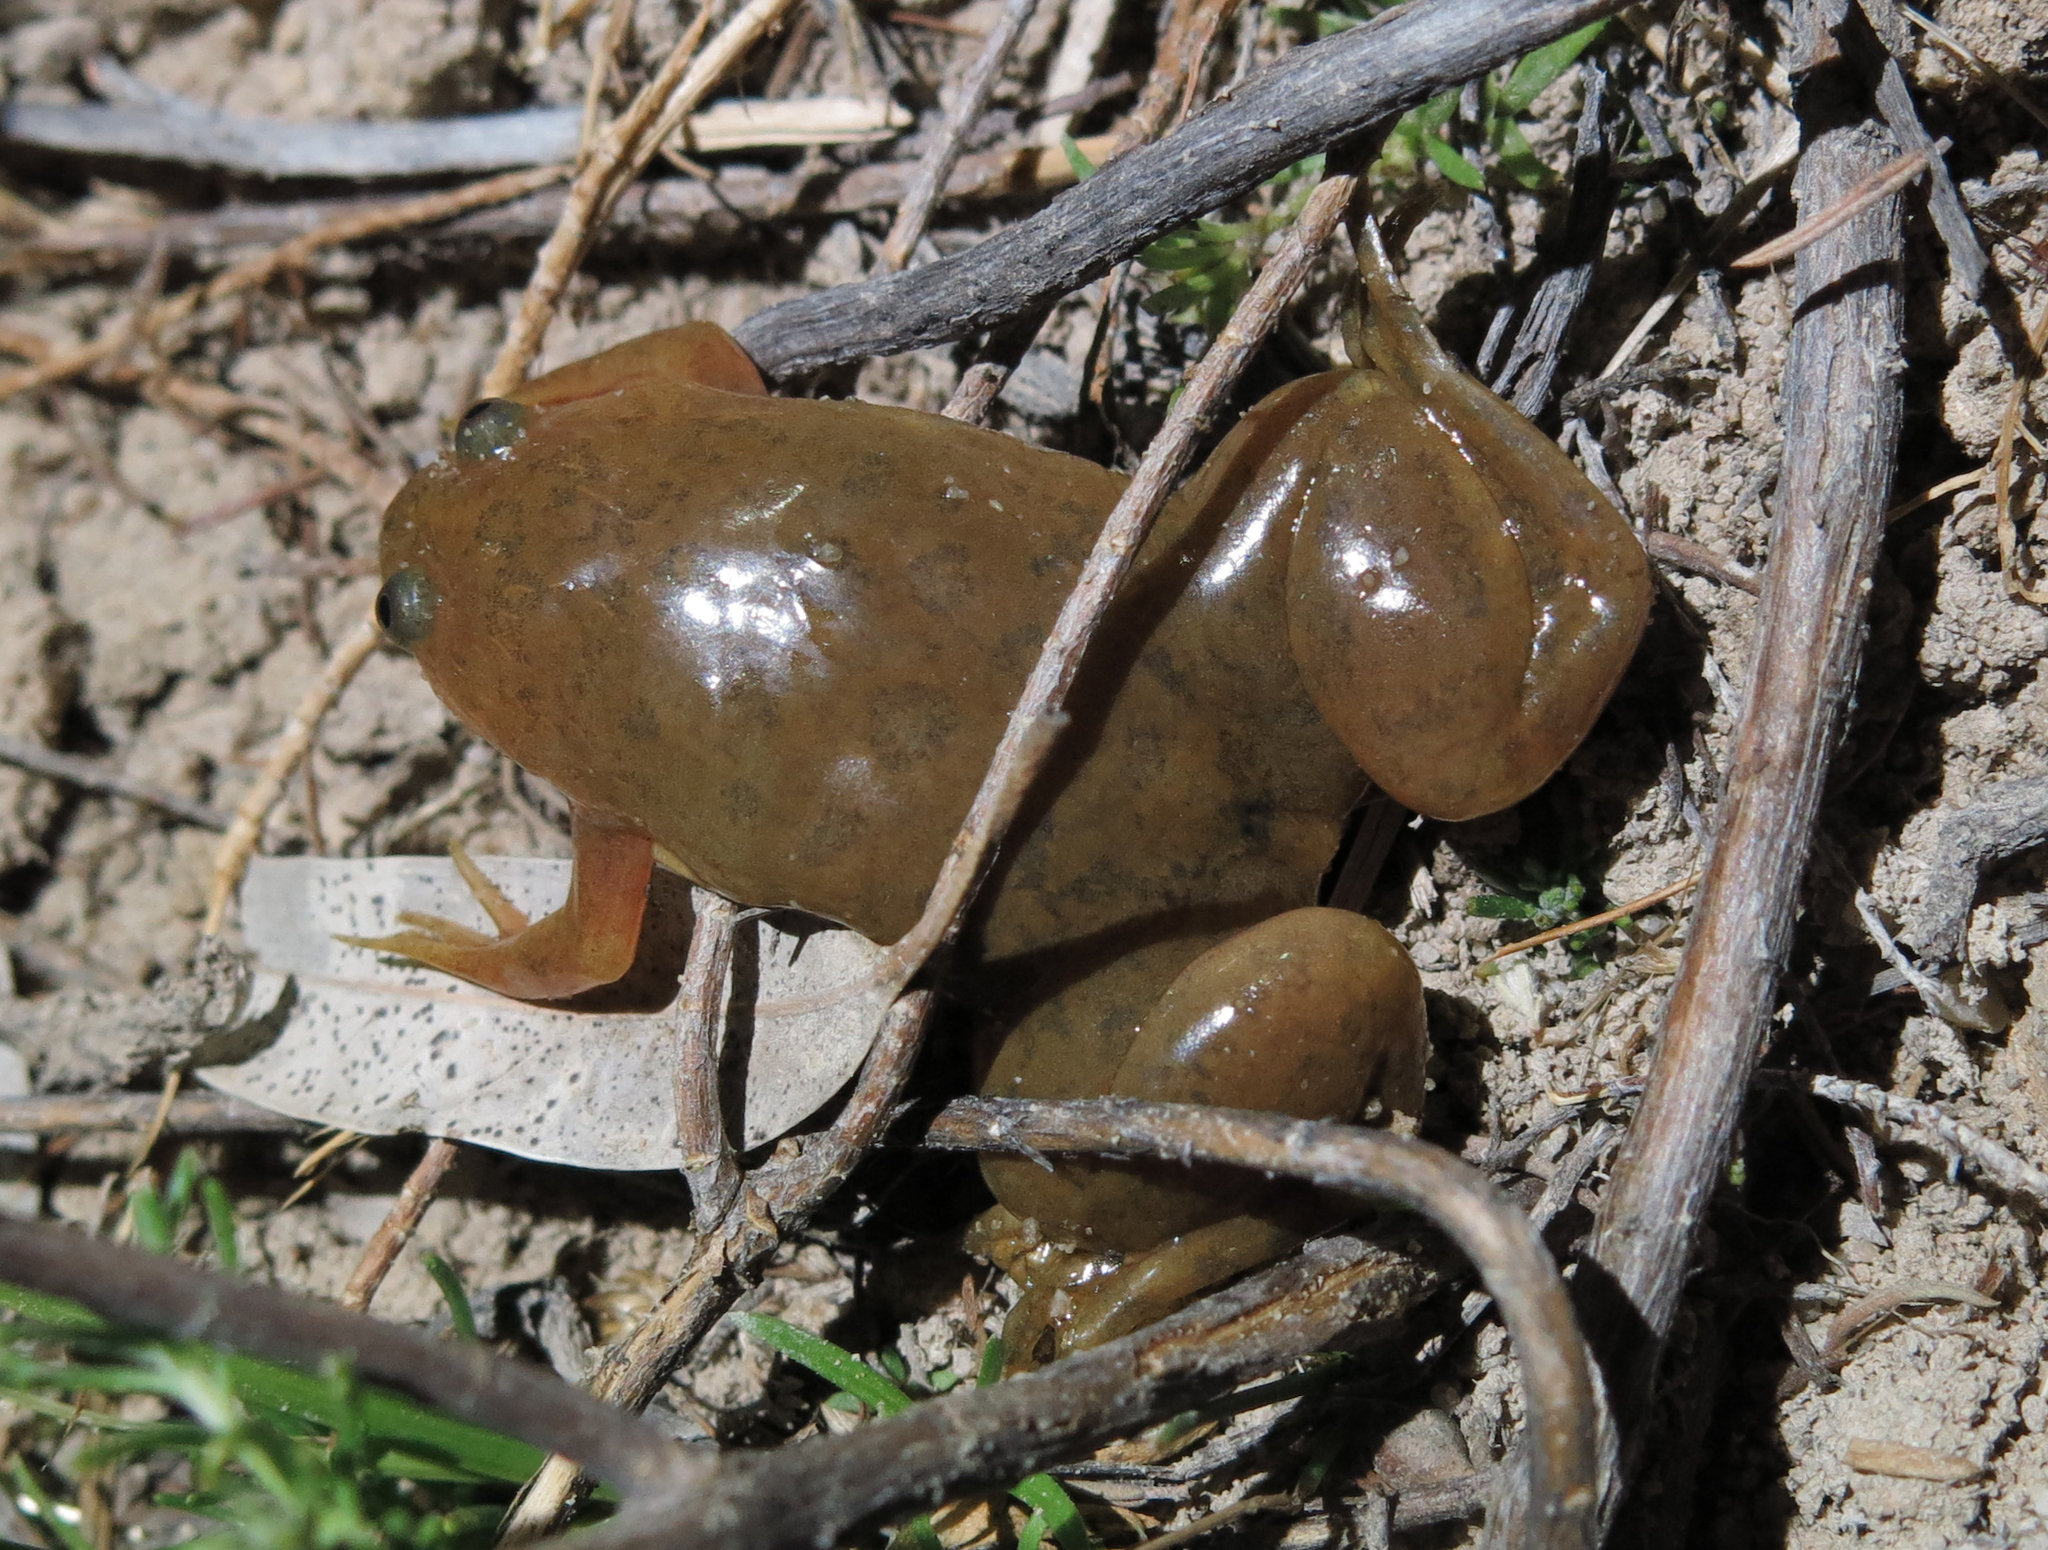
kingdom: Animalia
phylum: Chordata
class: Amphibia
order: Anura
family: Pipidae
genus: Xenopus
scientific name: Xenopus laevis
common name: African clawed frog
